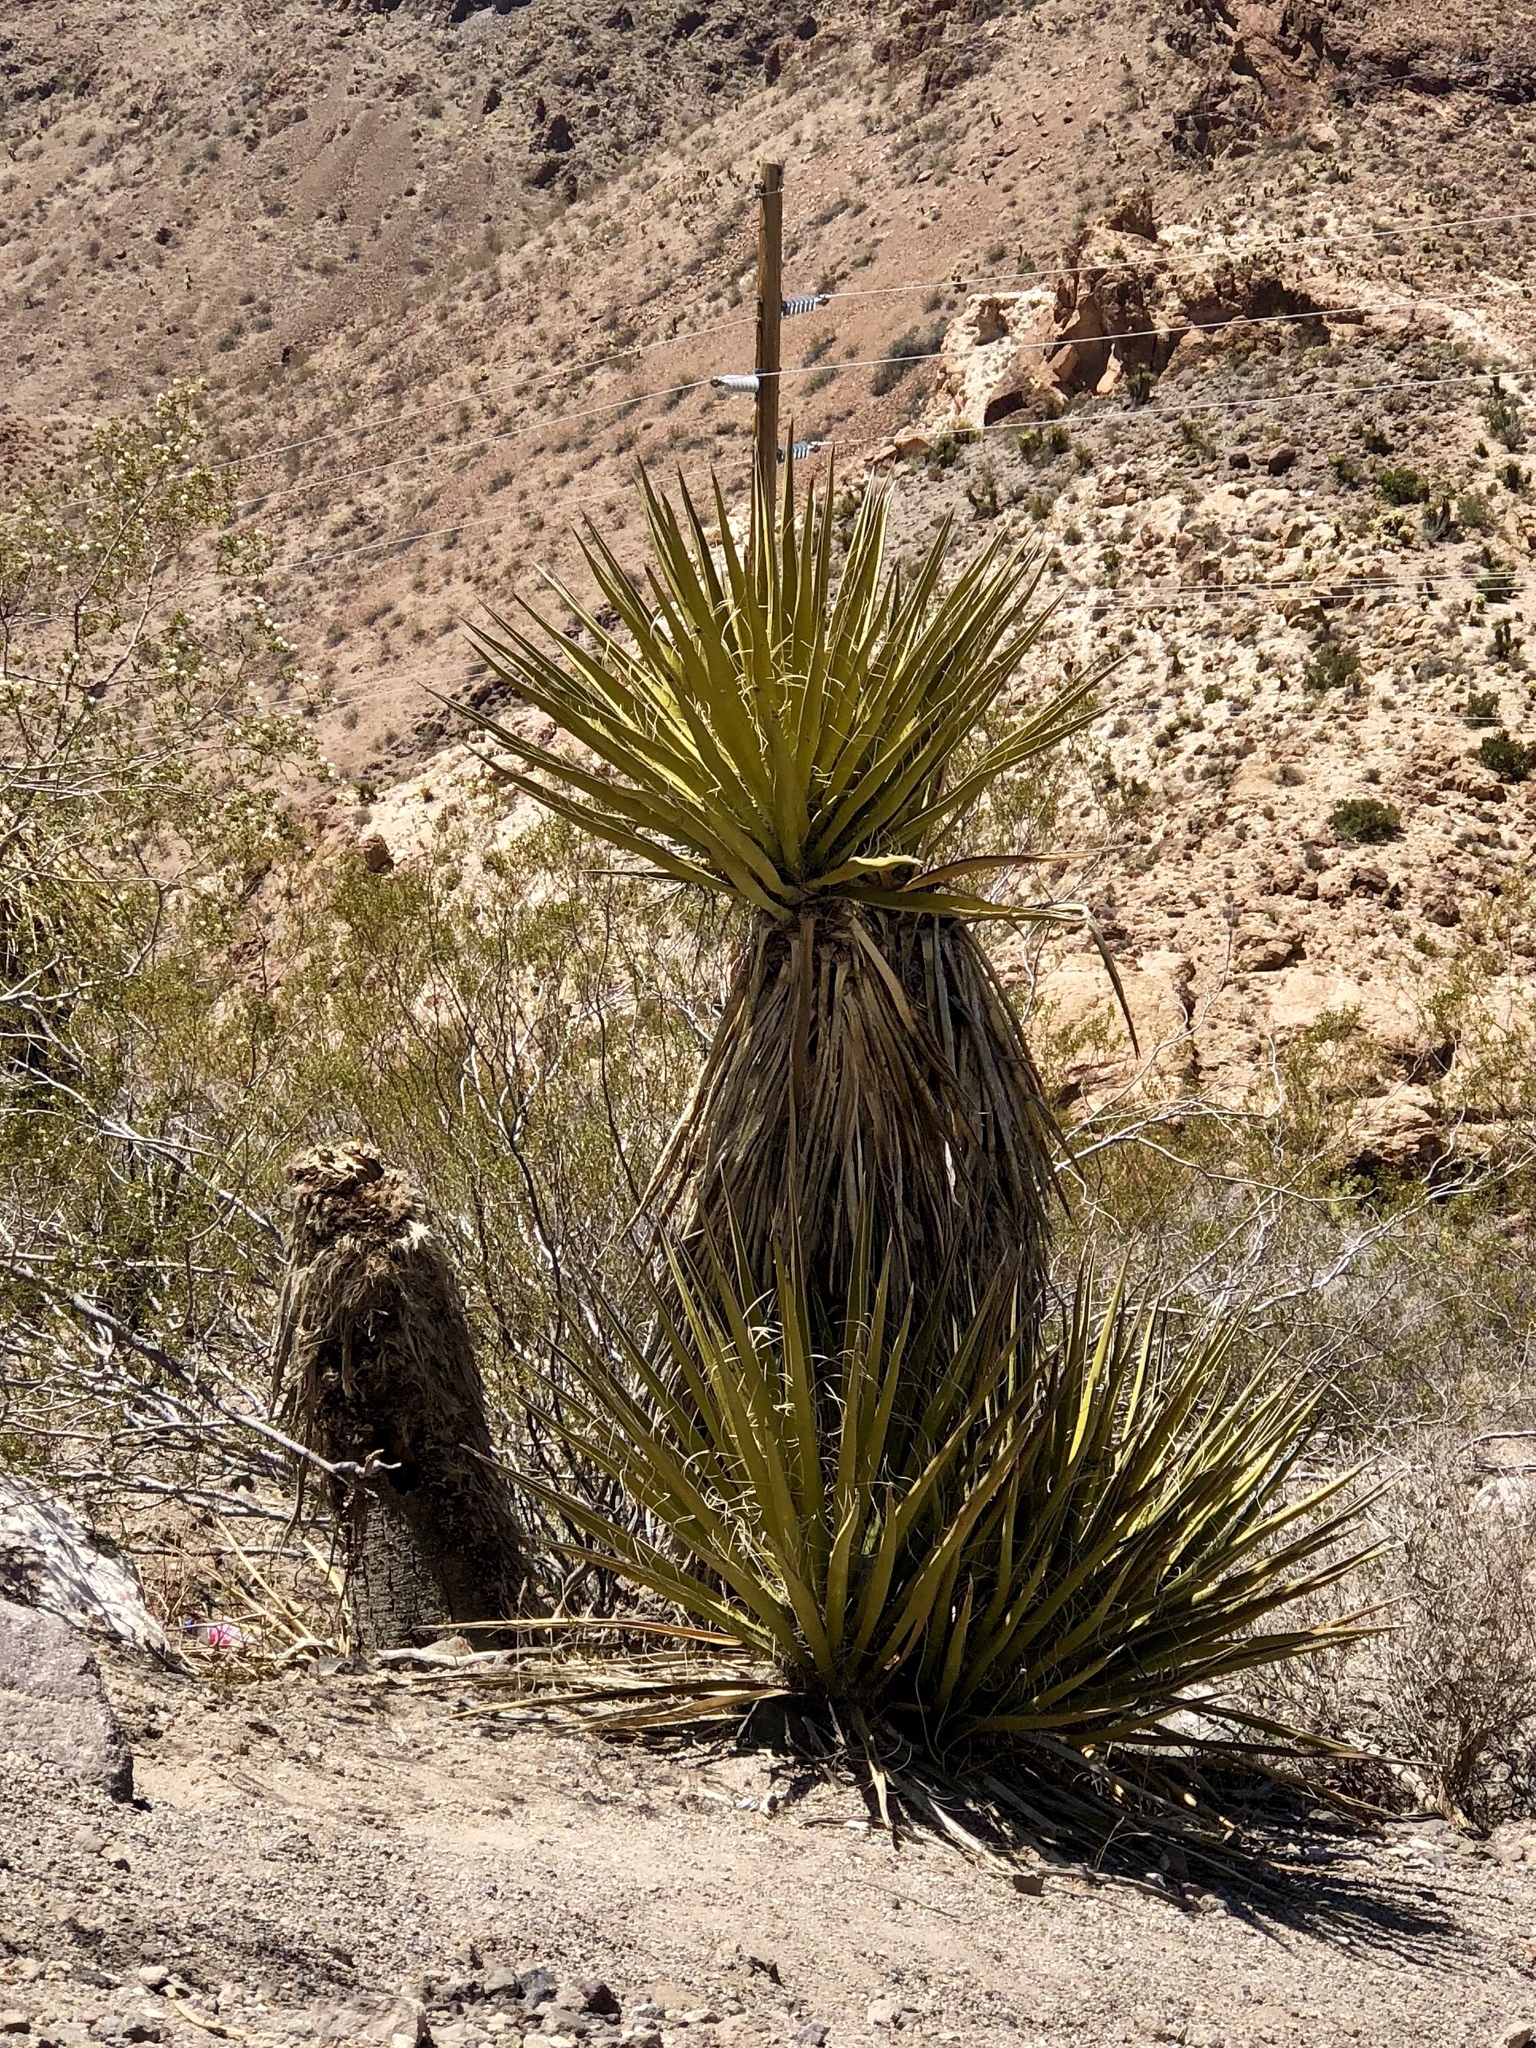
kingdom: Plantae
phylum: Tracheophyta
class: Liliopsida
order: Asparagales
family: Asparagaceae
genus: Yucca
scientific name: Yucca schidigera
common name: Mojave yucca
